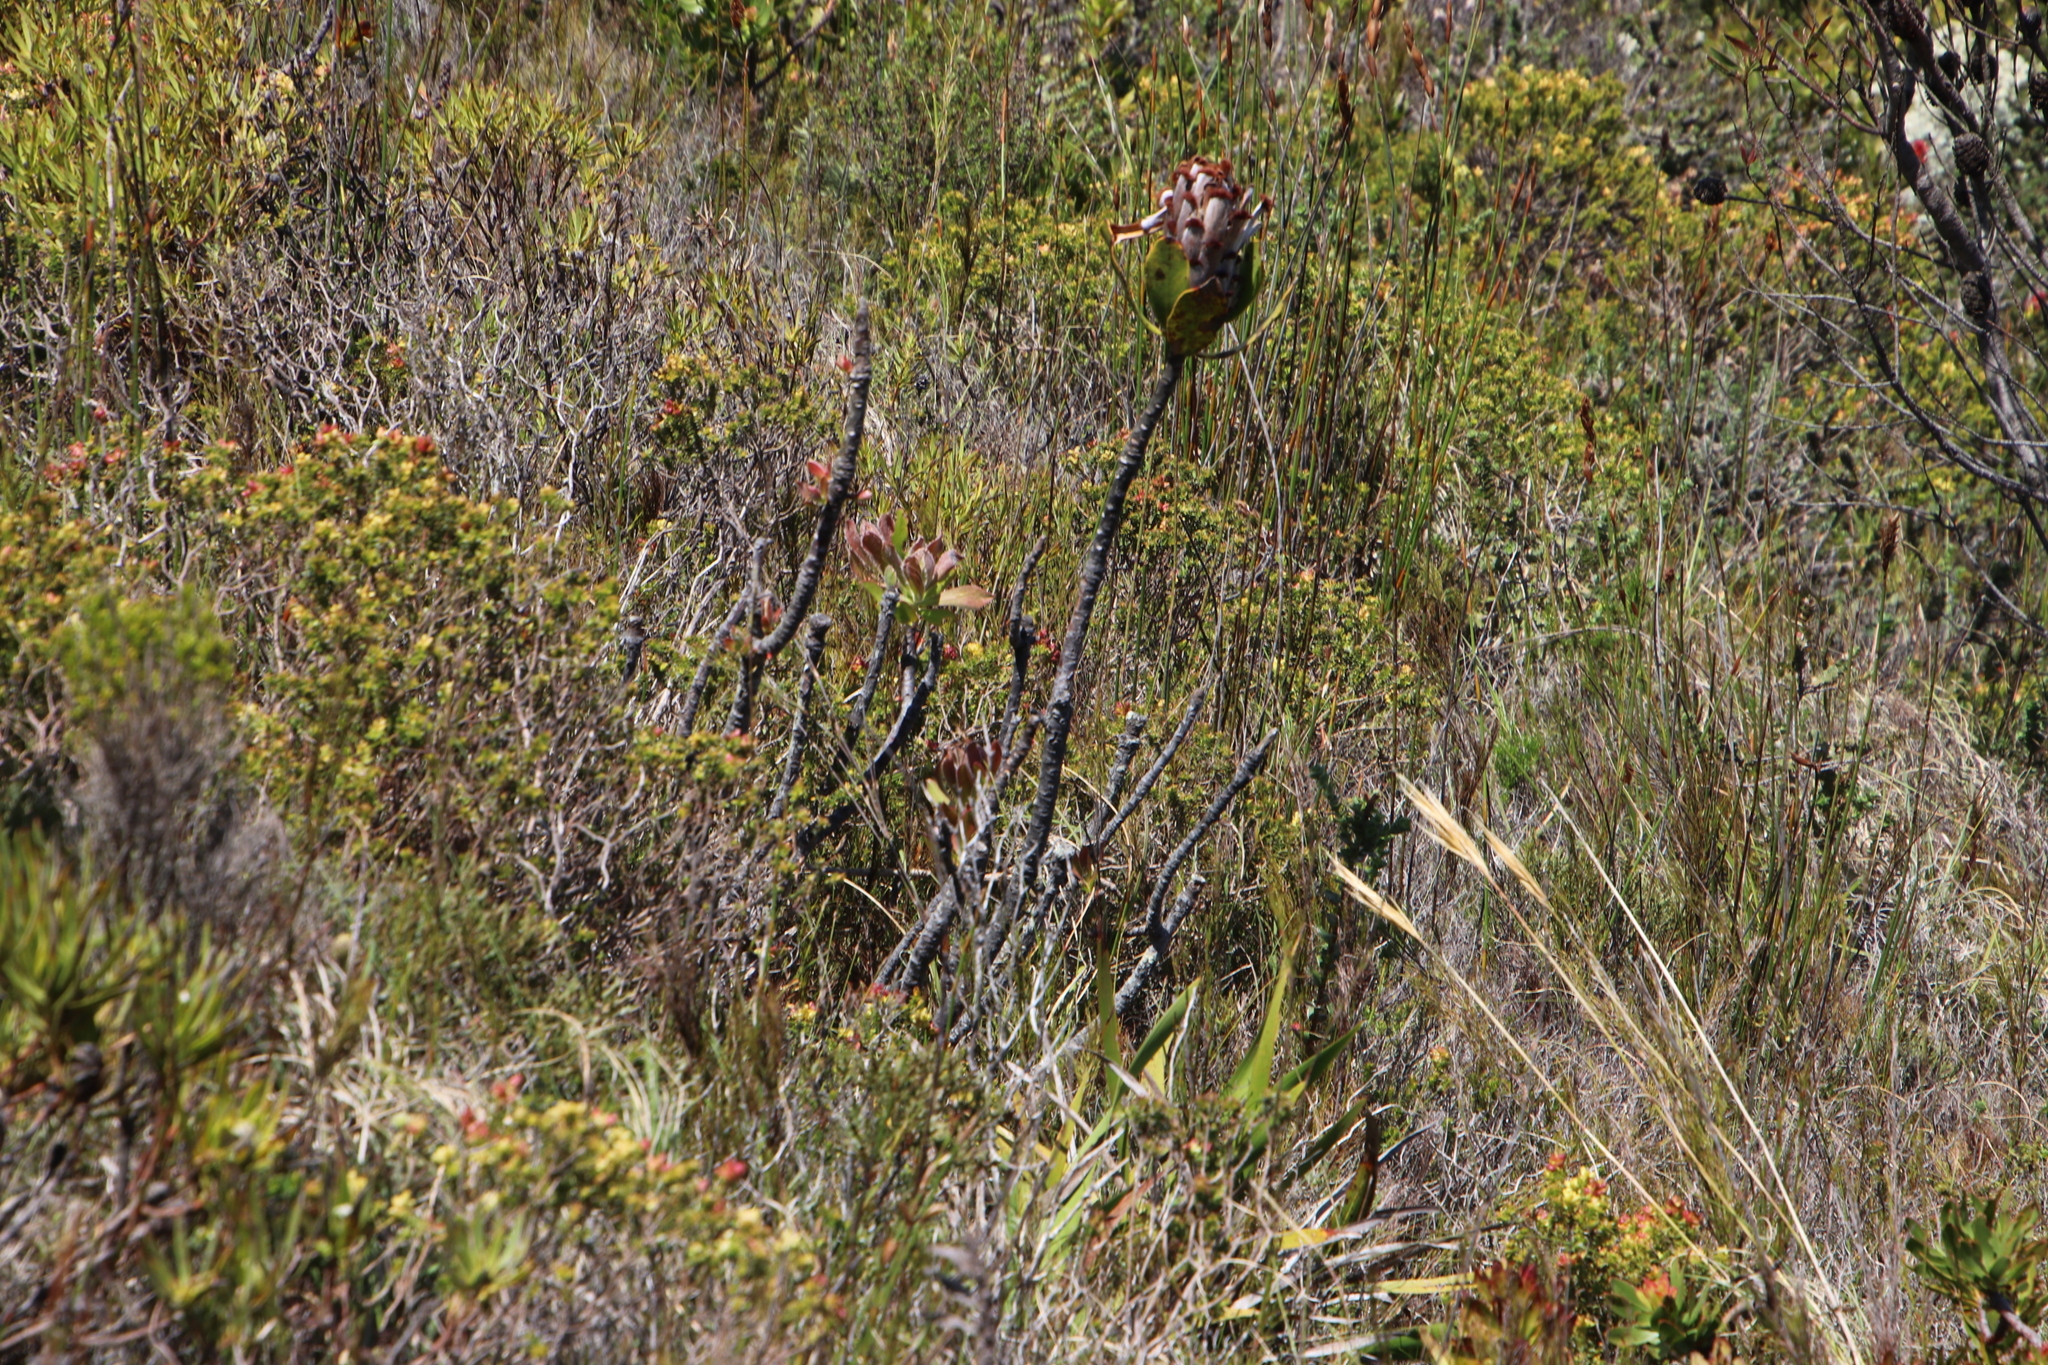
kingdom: Plantae
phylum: Tracheophyta
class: Magnoliopsida
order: Proteales
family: Proteaceae
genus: Protea
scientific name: Protea speciosa
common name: Brown-beard sugarbush
